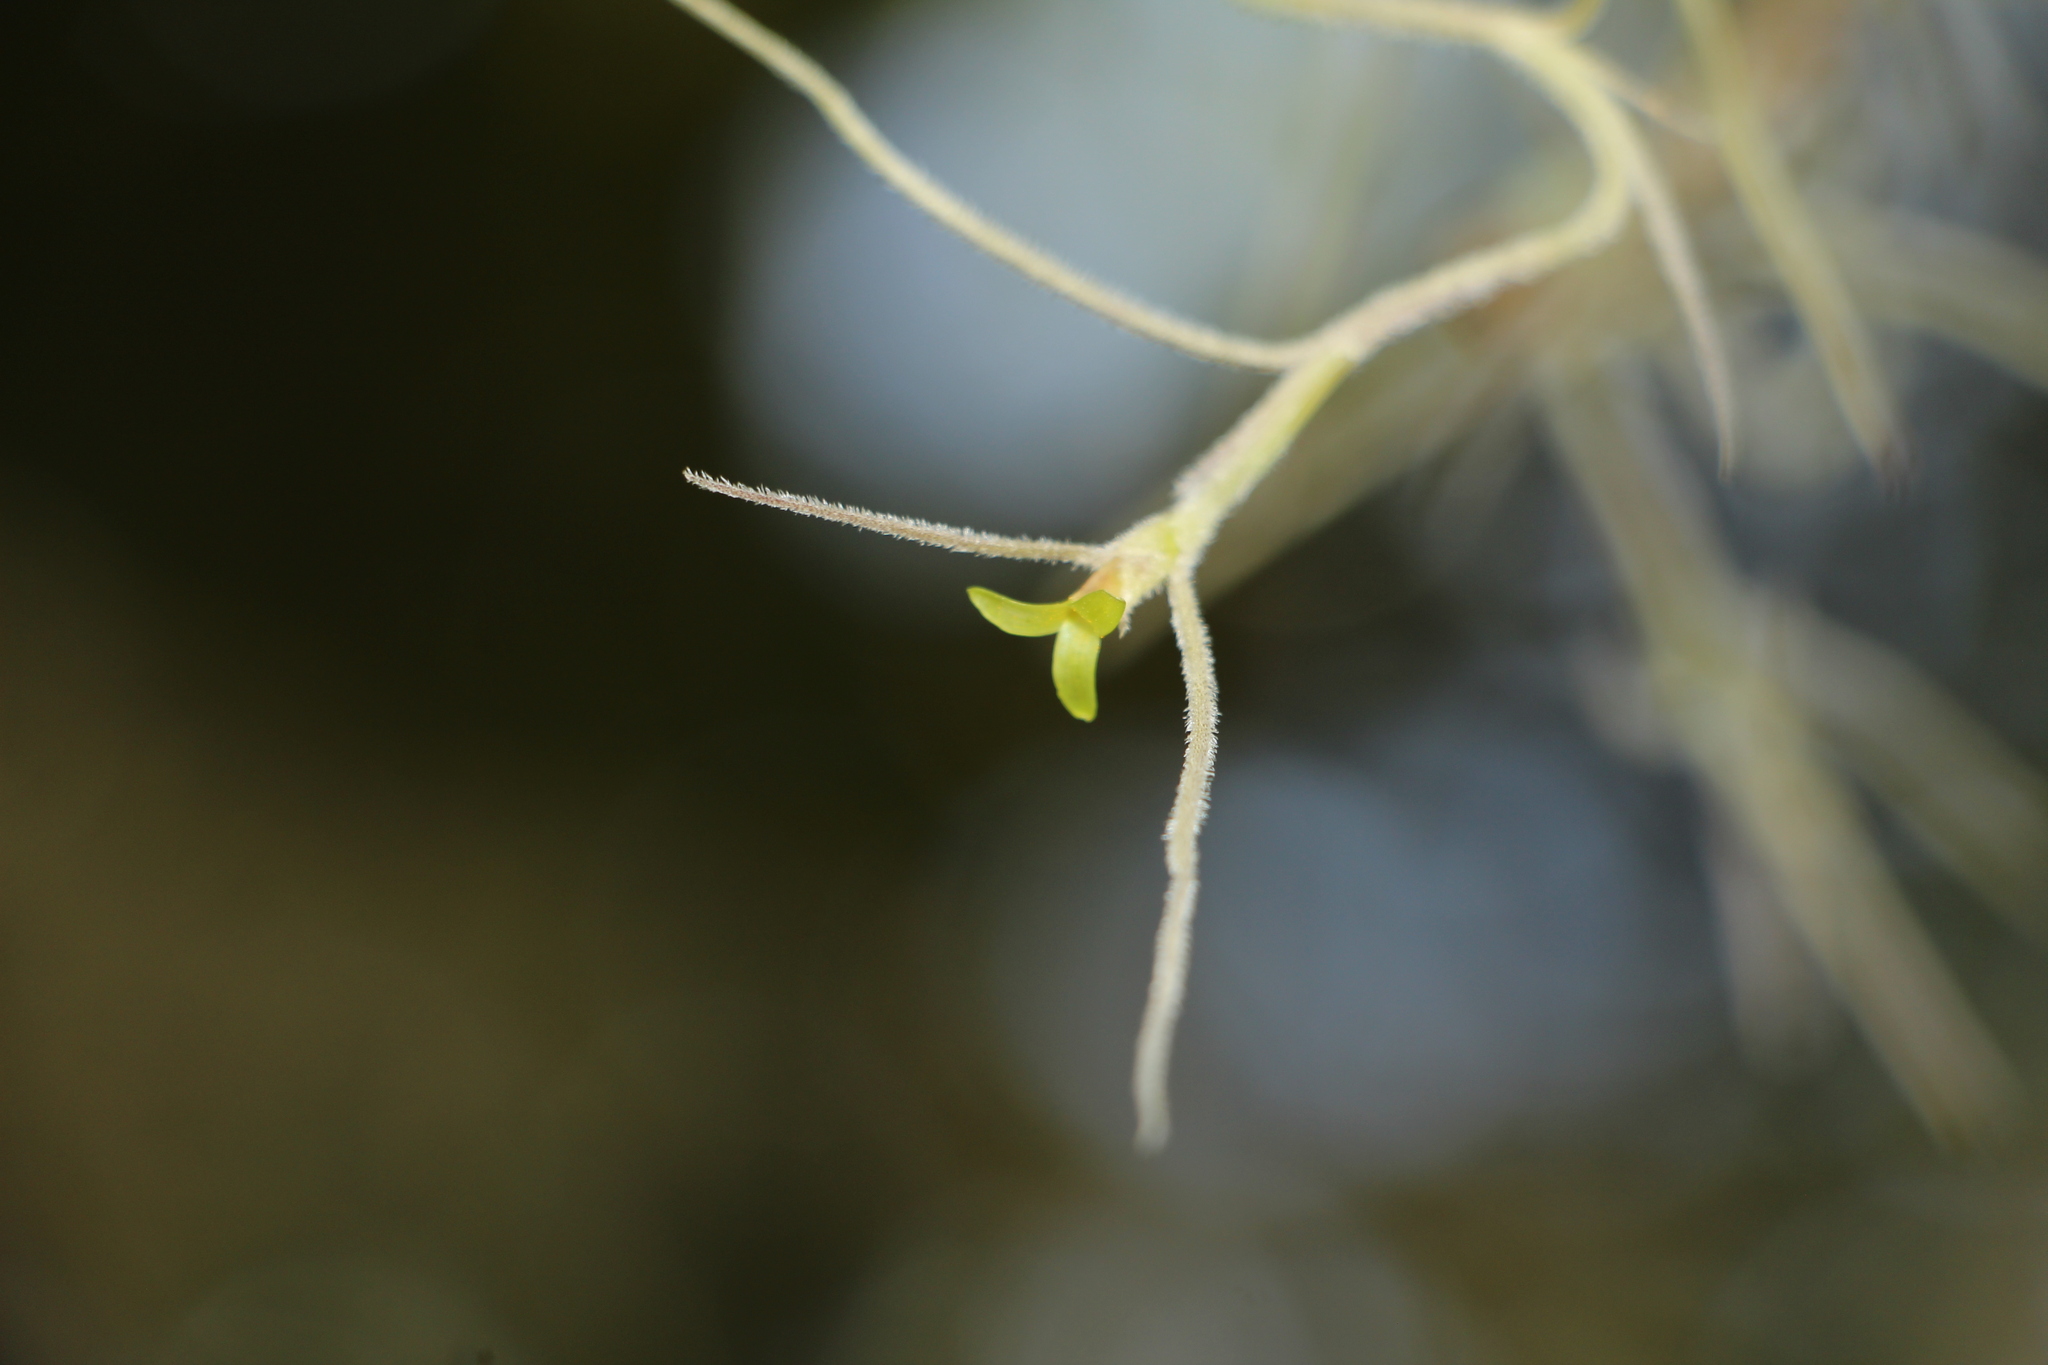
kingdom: Plantae
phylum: Tracheophyta
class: Liliopsida
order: Poales
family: Bromeliaceae
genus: Tillandsia
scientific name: Tillandsia usneoides
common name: Spanish moss
